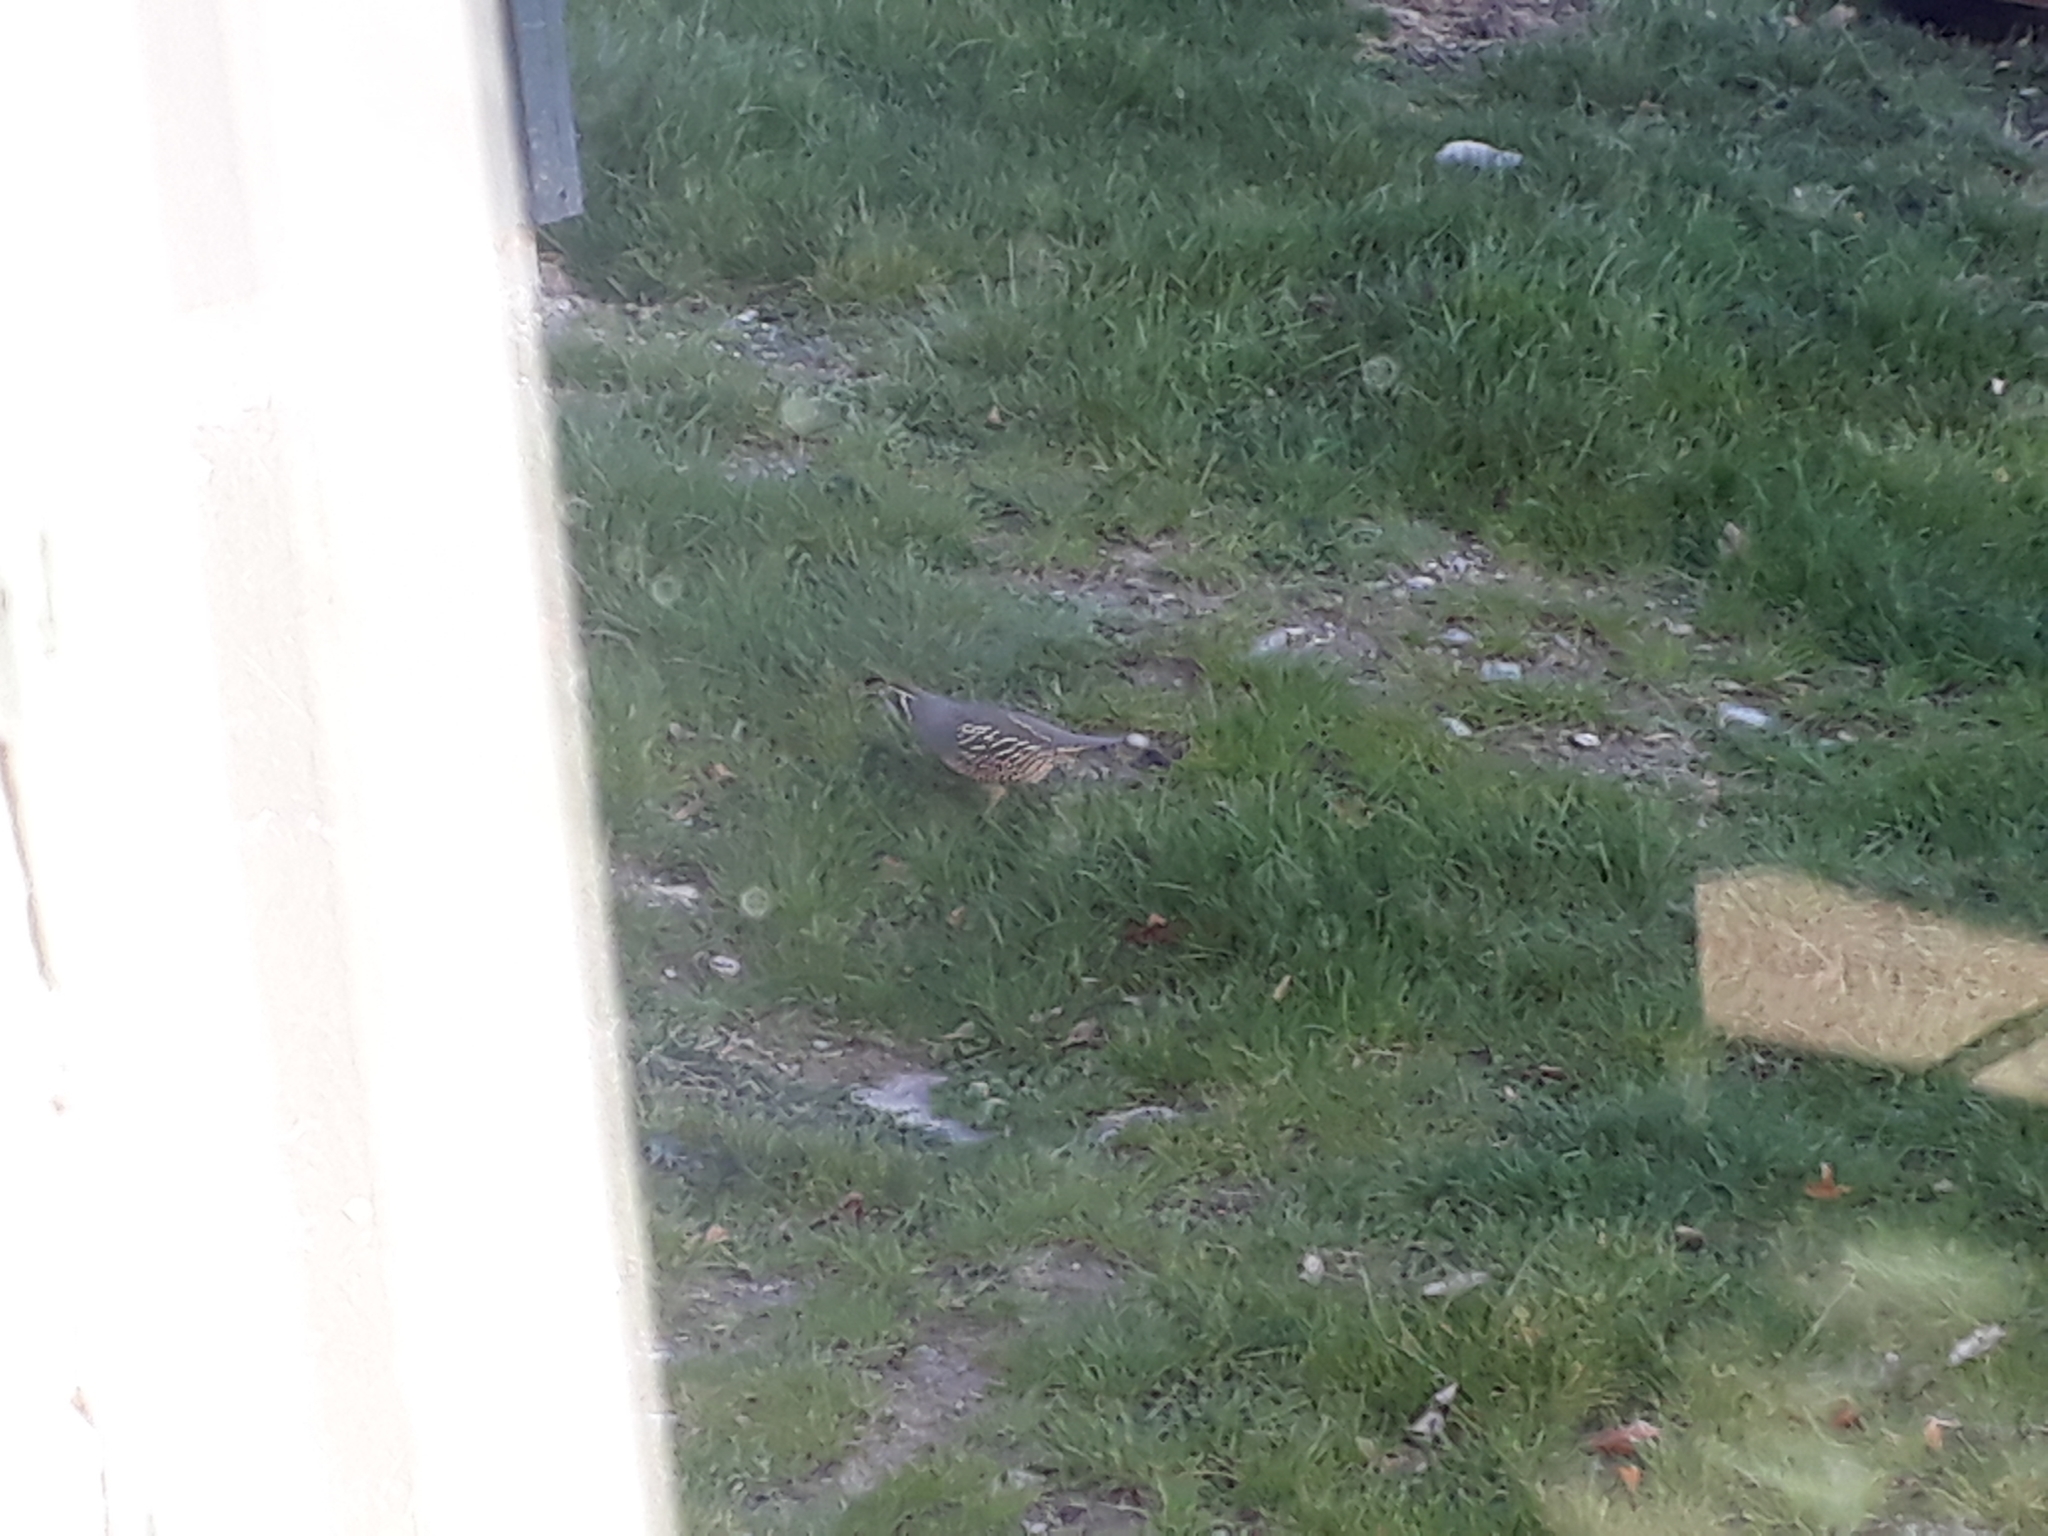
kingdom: Animalia
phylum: Chordata
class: Aves
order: Galliformes
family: Odontophoridae
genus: Callipepla
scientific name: Callipepla californica
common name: California quail
